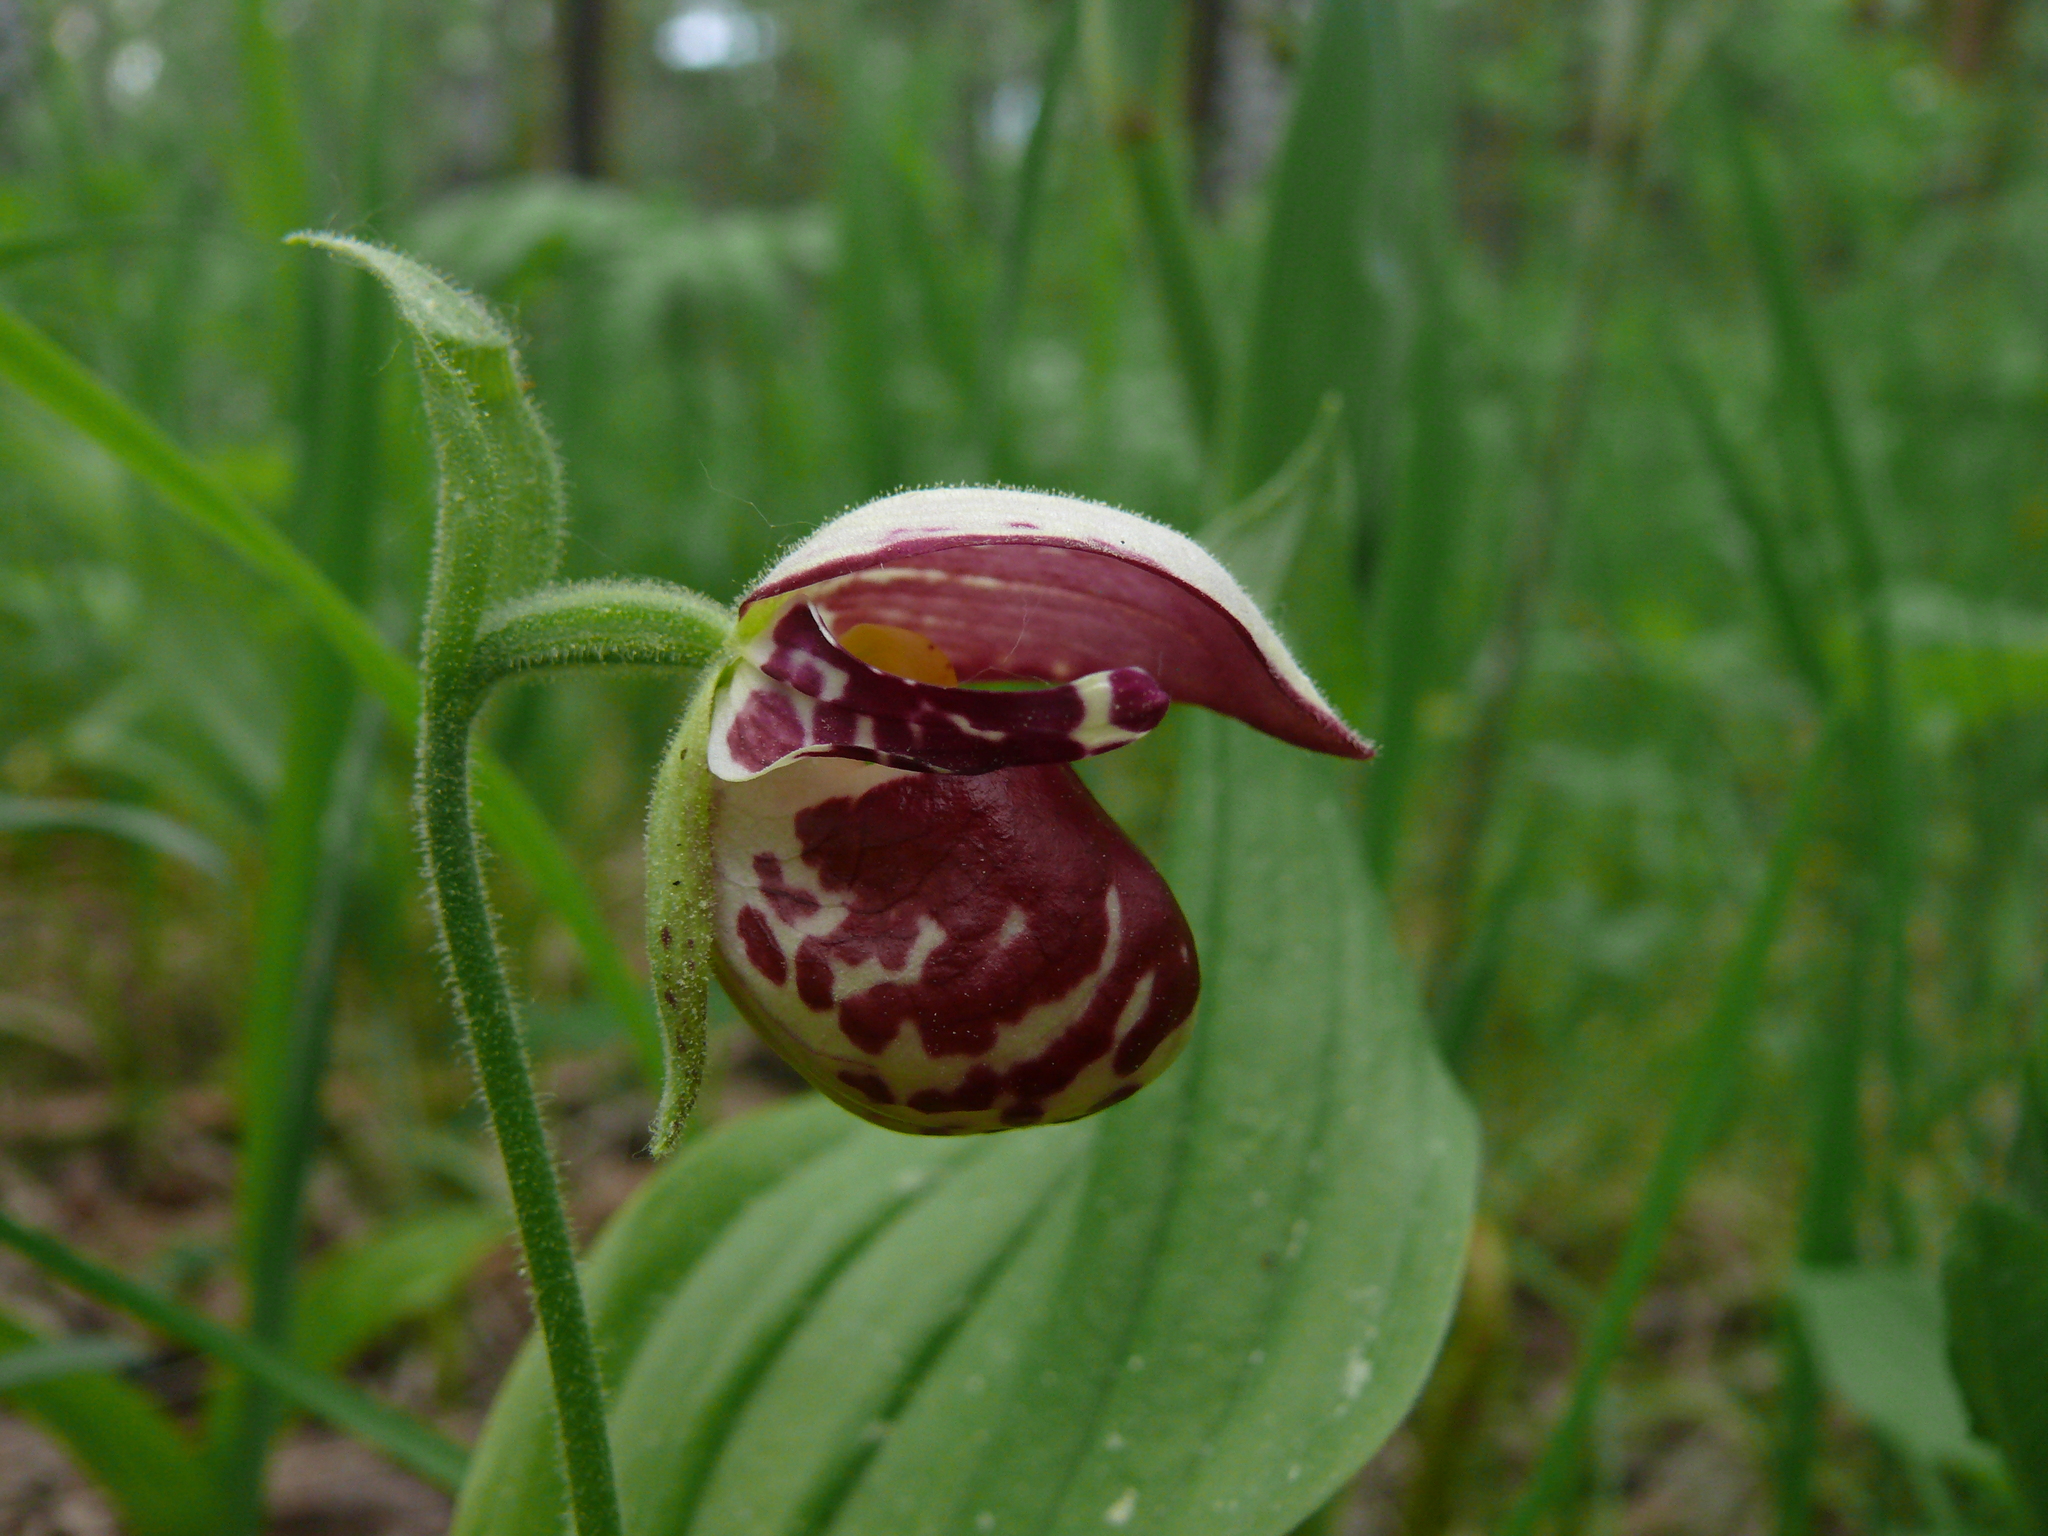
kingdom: Plantae
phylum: Tracheophyta
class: Liliopsida
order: Asparagales
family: Orchidaceae
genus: Cypripedium
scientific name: Cypripedium guttatum
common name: Pink lady slipper
